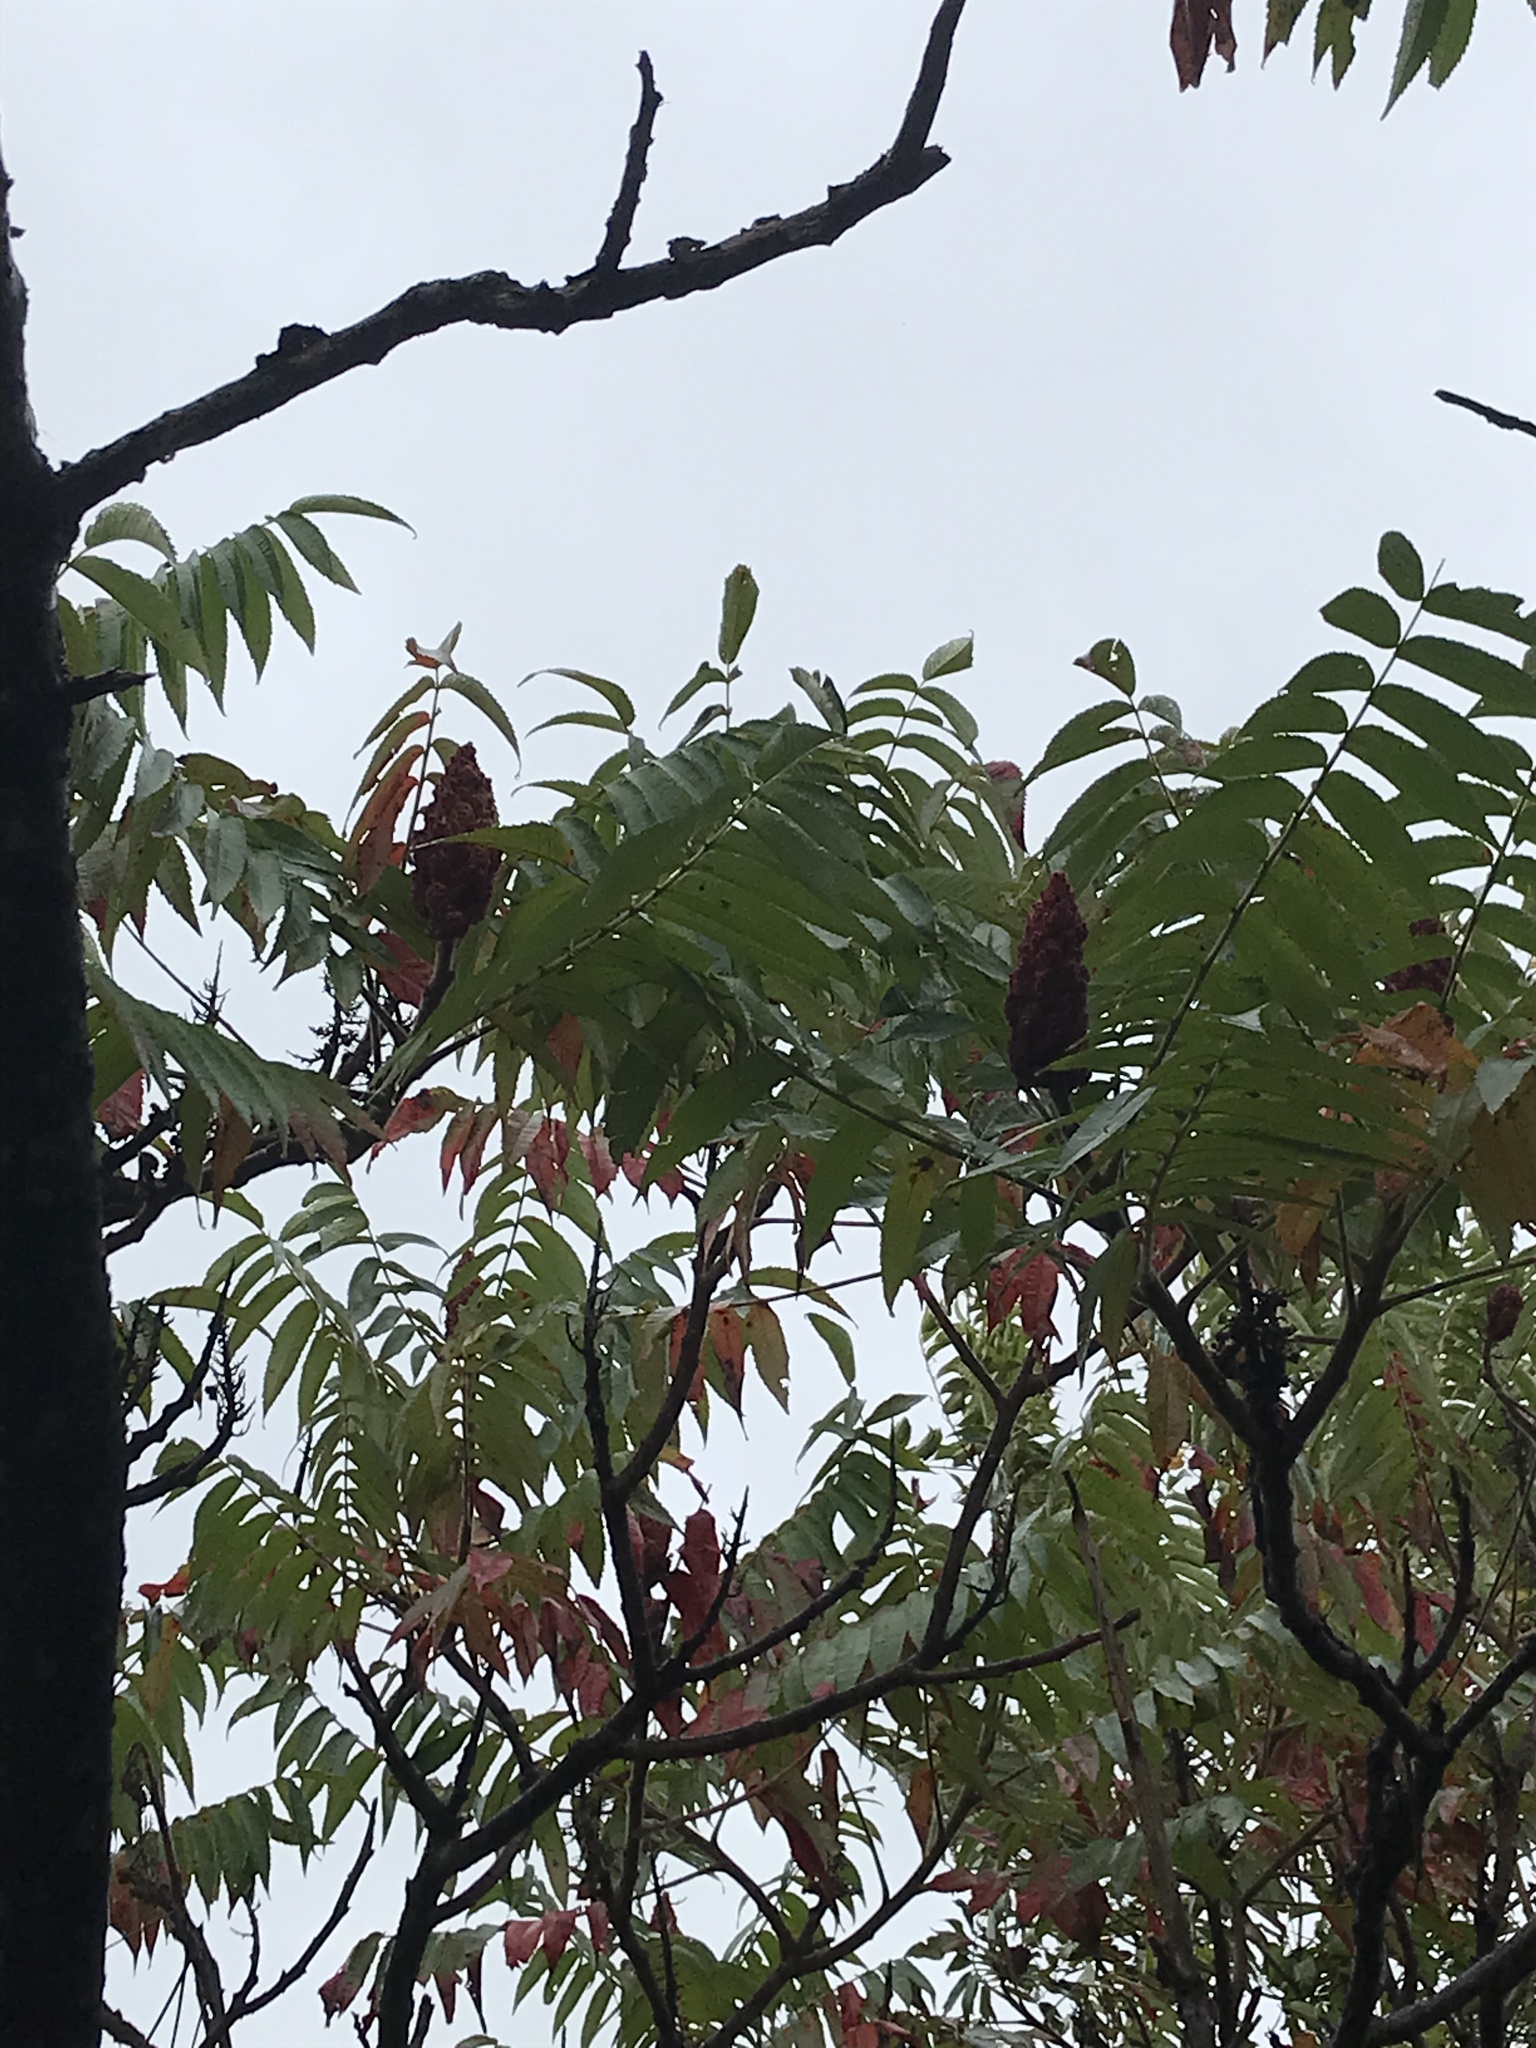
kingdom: Plantae
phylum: Tracheophyta
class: Magnoliopsida
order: Sapindales
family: Anacardiaceae
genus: Rhus
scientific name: Rhus typhina
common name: Staghorn sumac
